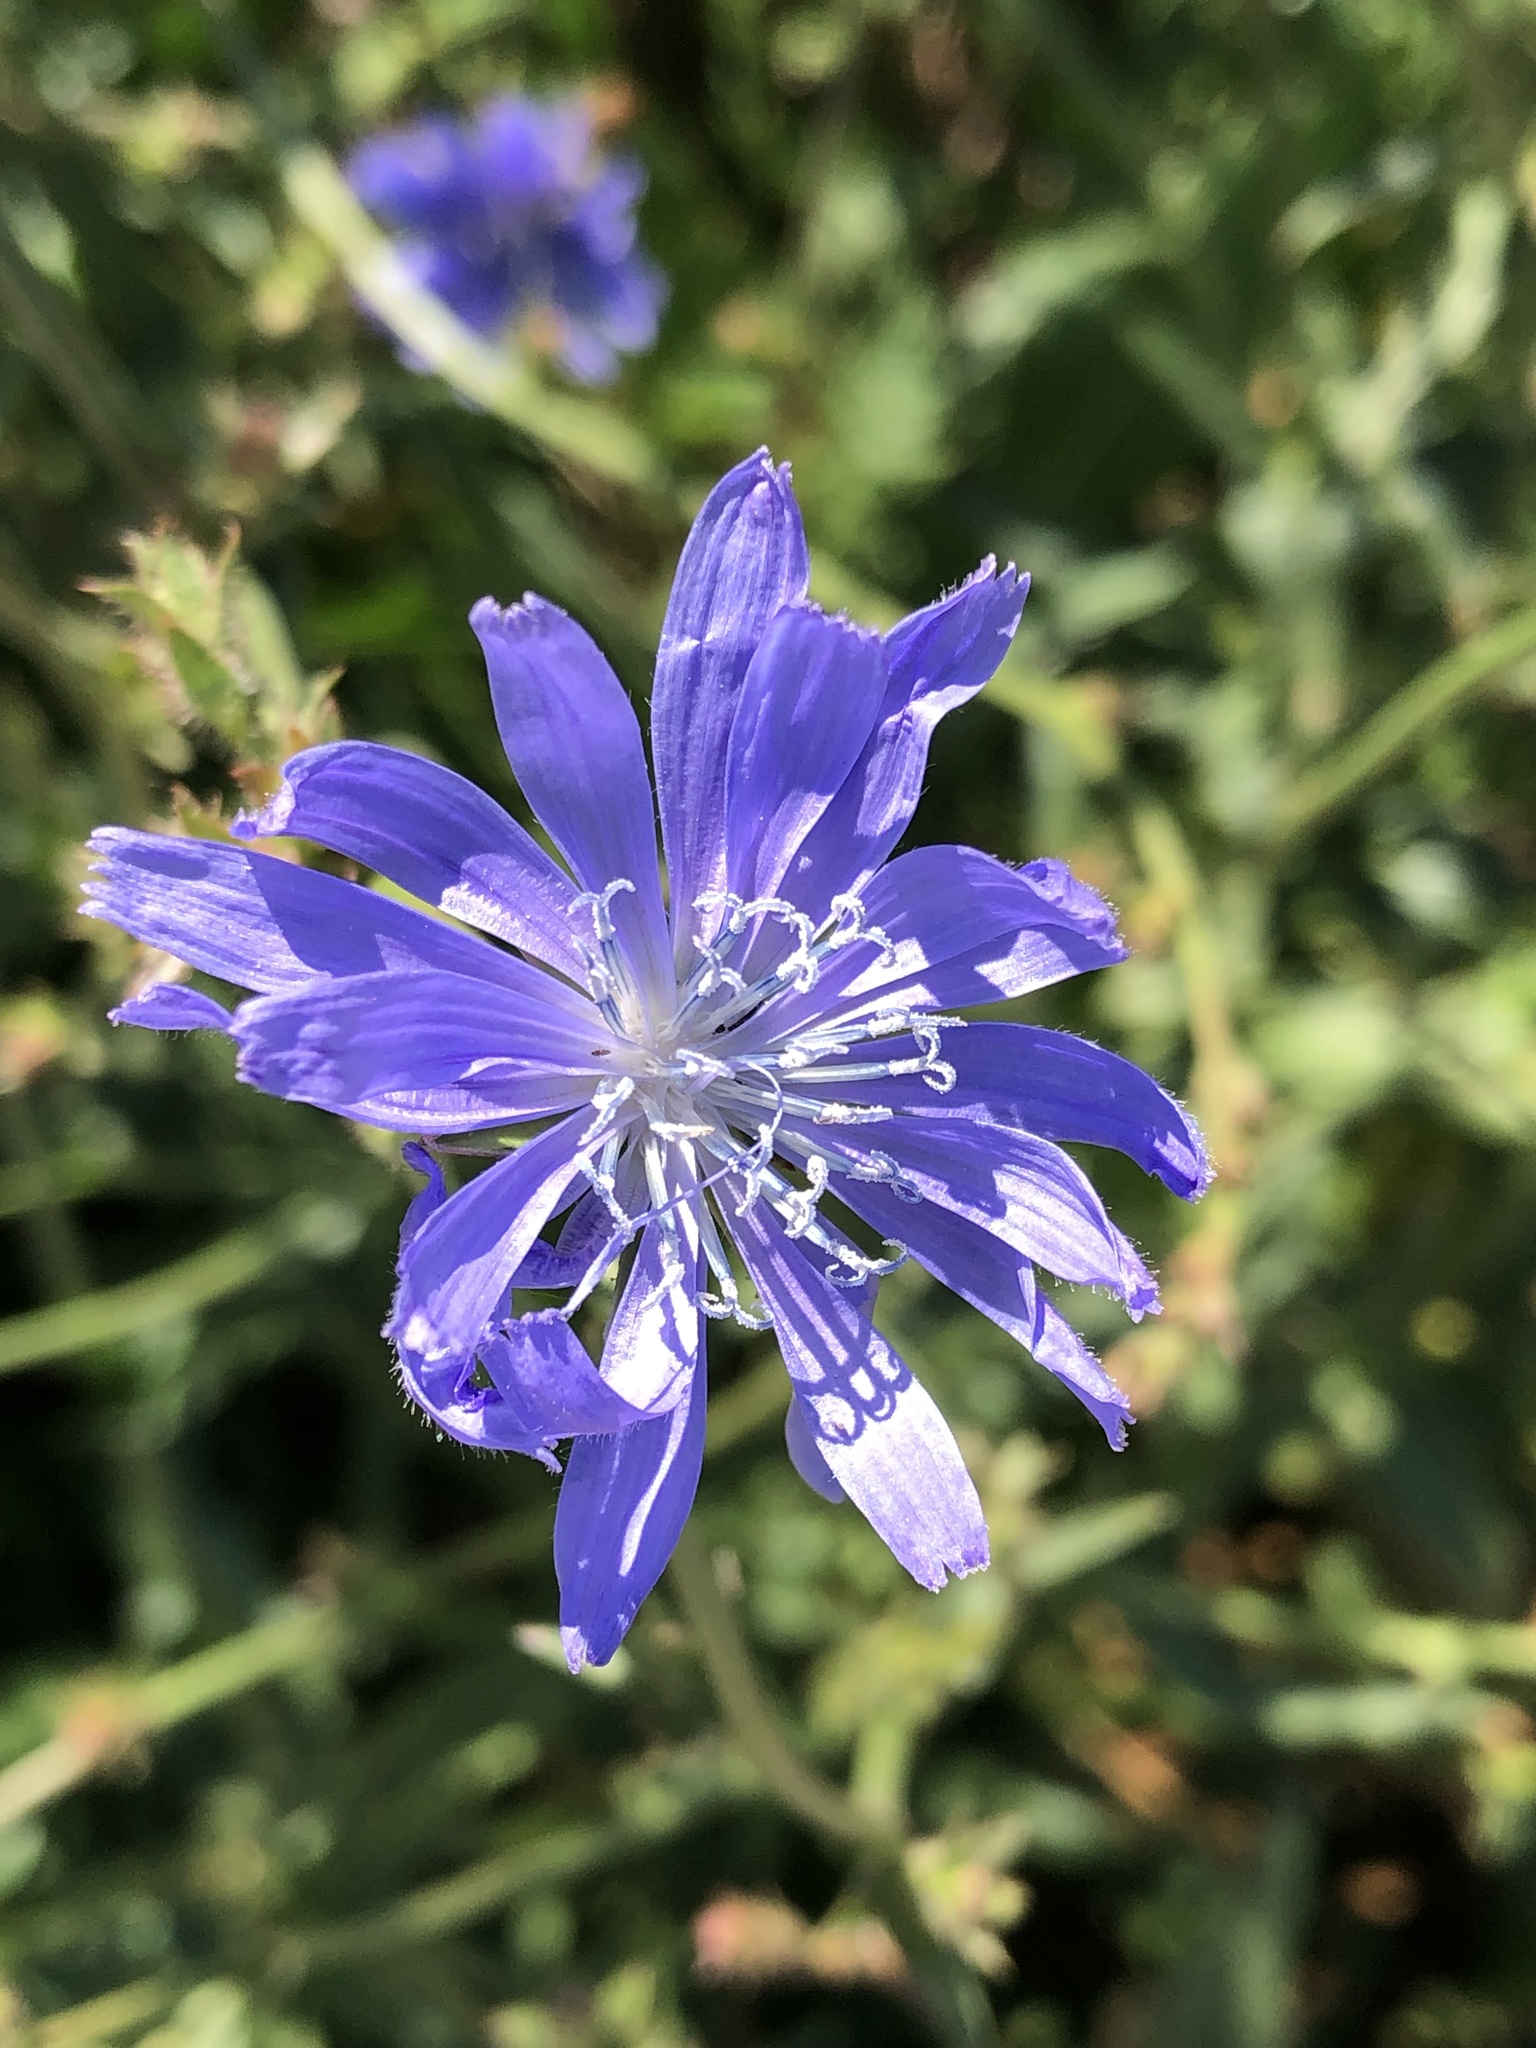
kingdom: Plantae
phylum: Tracheophyta
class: Magnoliopsida
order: Asterales
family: Asteraceae
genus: Cichorium
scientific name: Cichorium intybus
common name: Chicory
